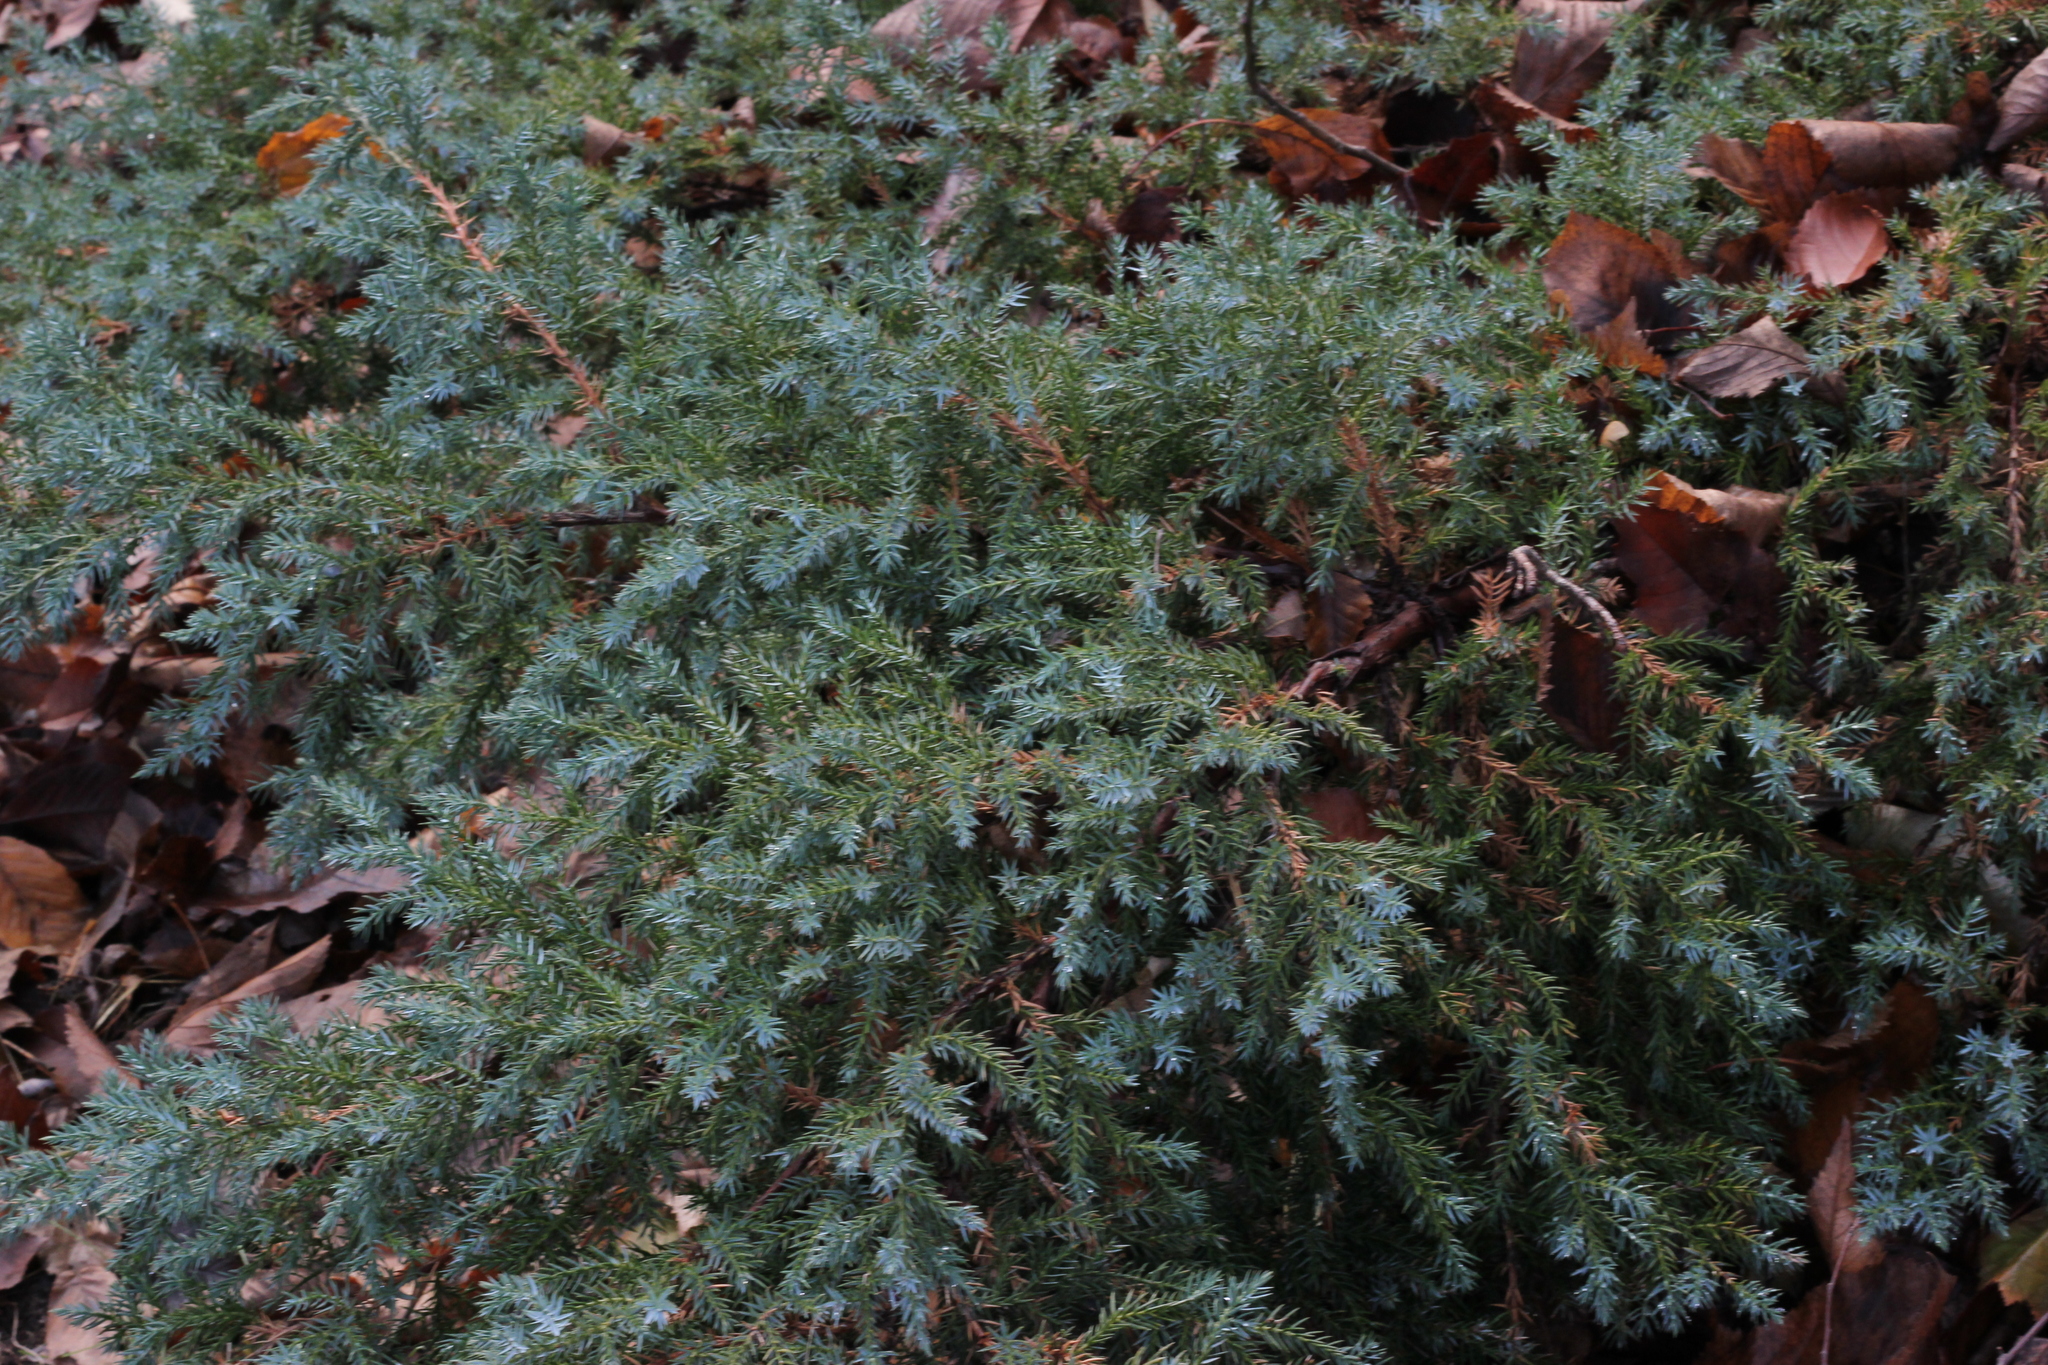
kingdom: Plantae
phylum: Tracheophyta
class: Pinopsida
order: Pinales
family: Cupressaceae
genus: Juniperus
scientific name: Juniperus communis
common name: Common juniper
